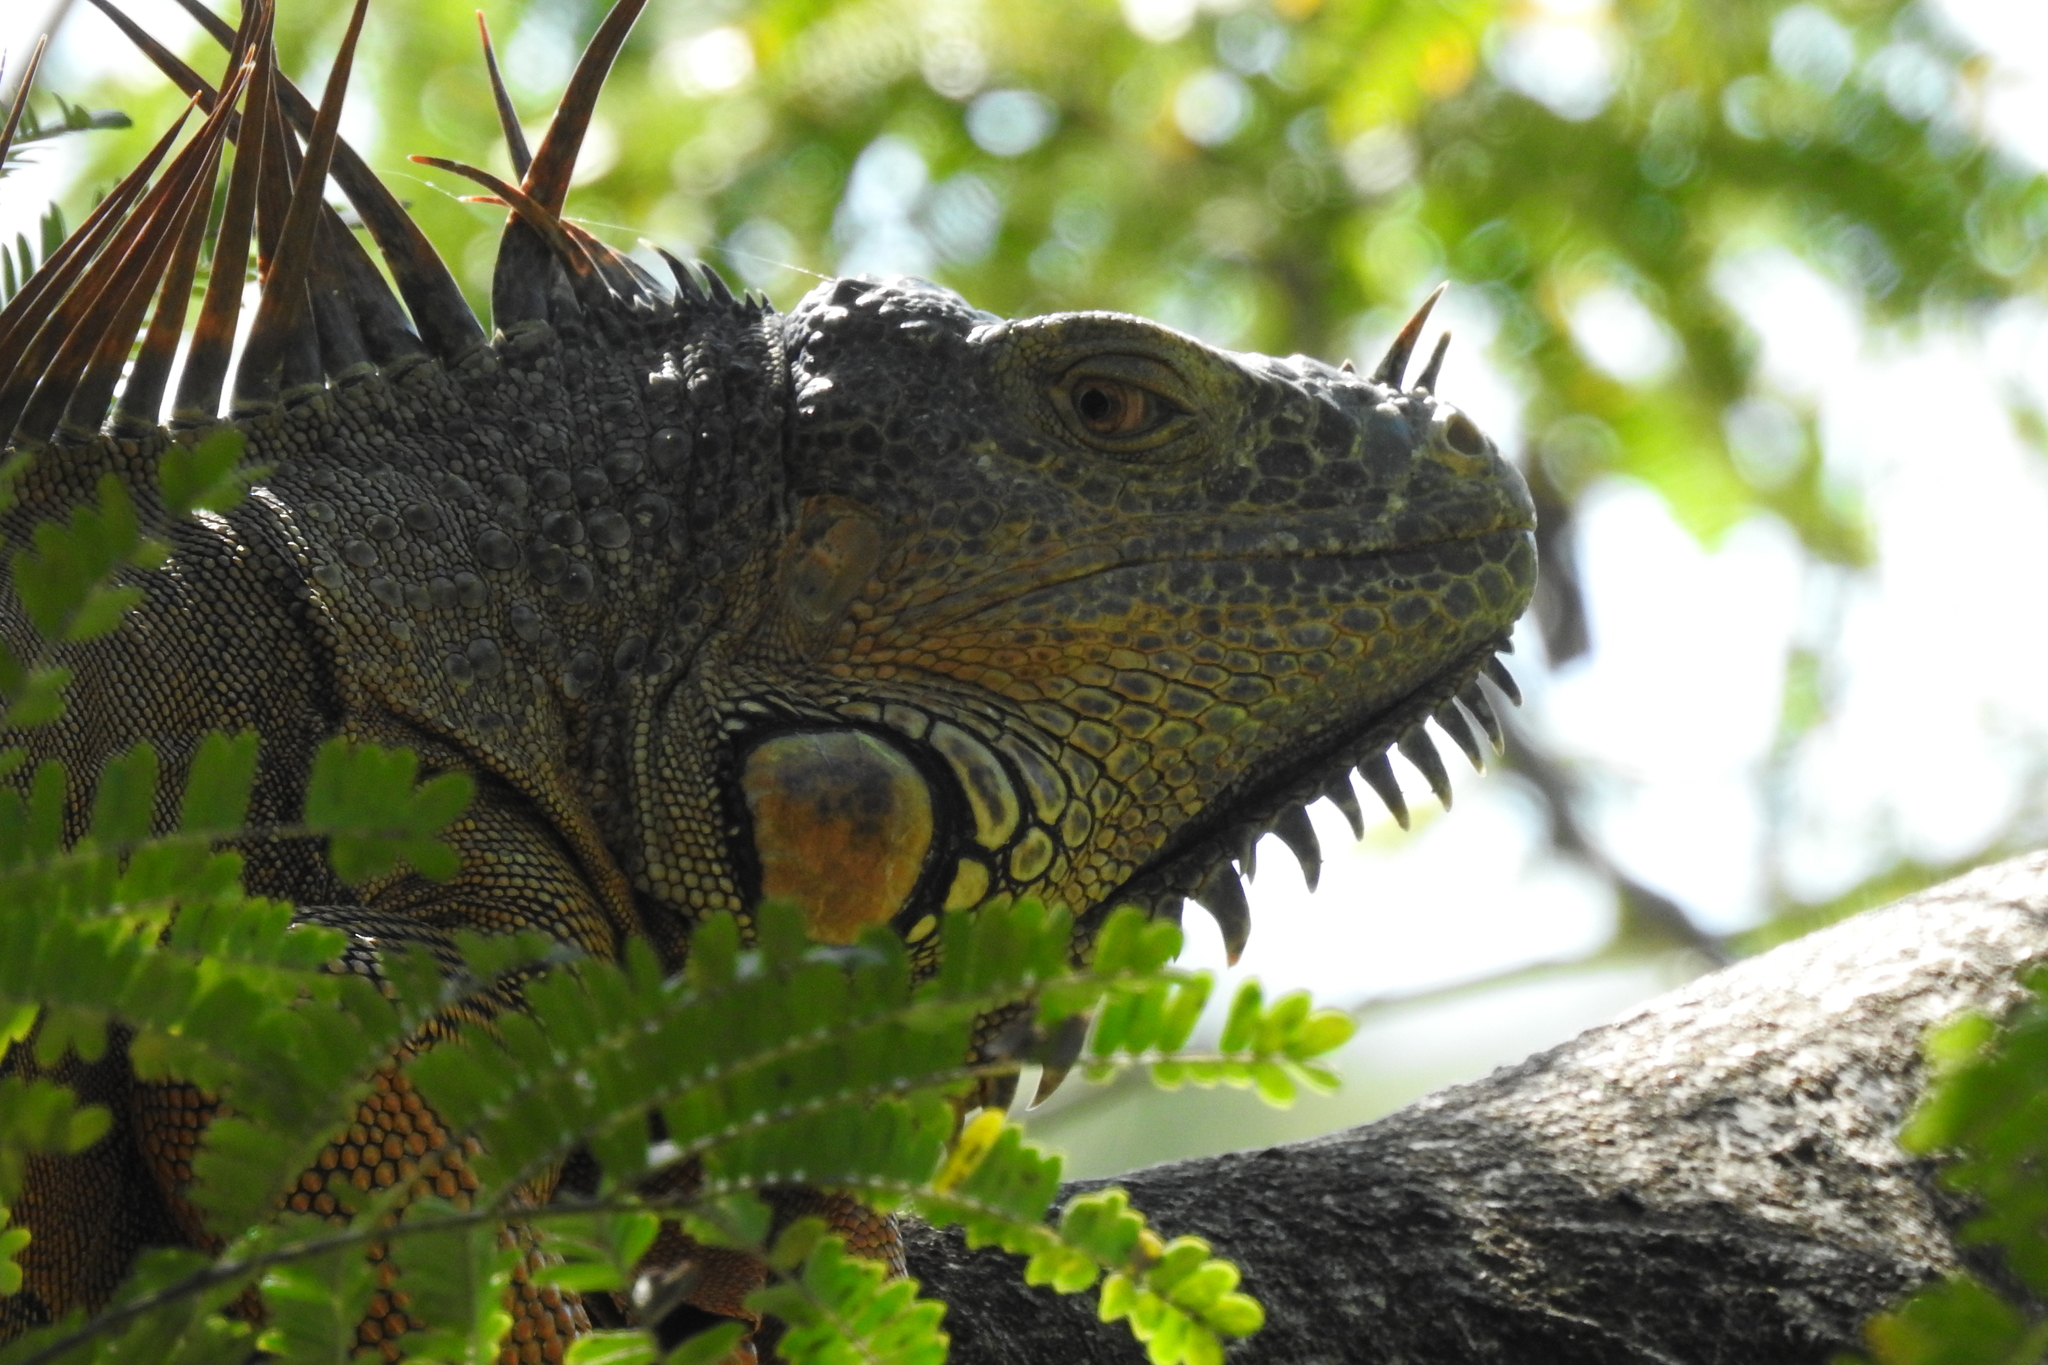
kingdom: Animalia
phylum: Chordata
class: Squamata
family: Iguanidae
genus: Iguana
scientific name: Iguana iguana
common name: Green iguana
